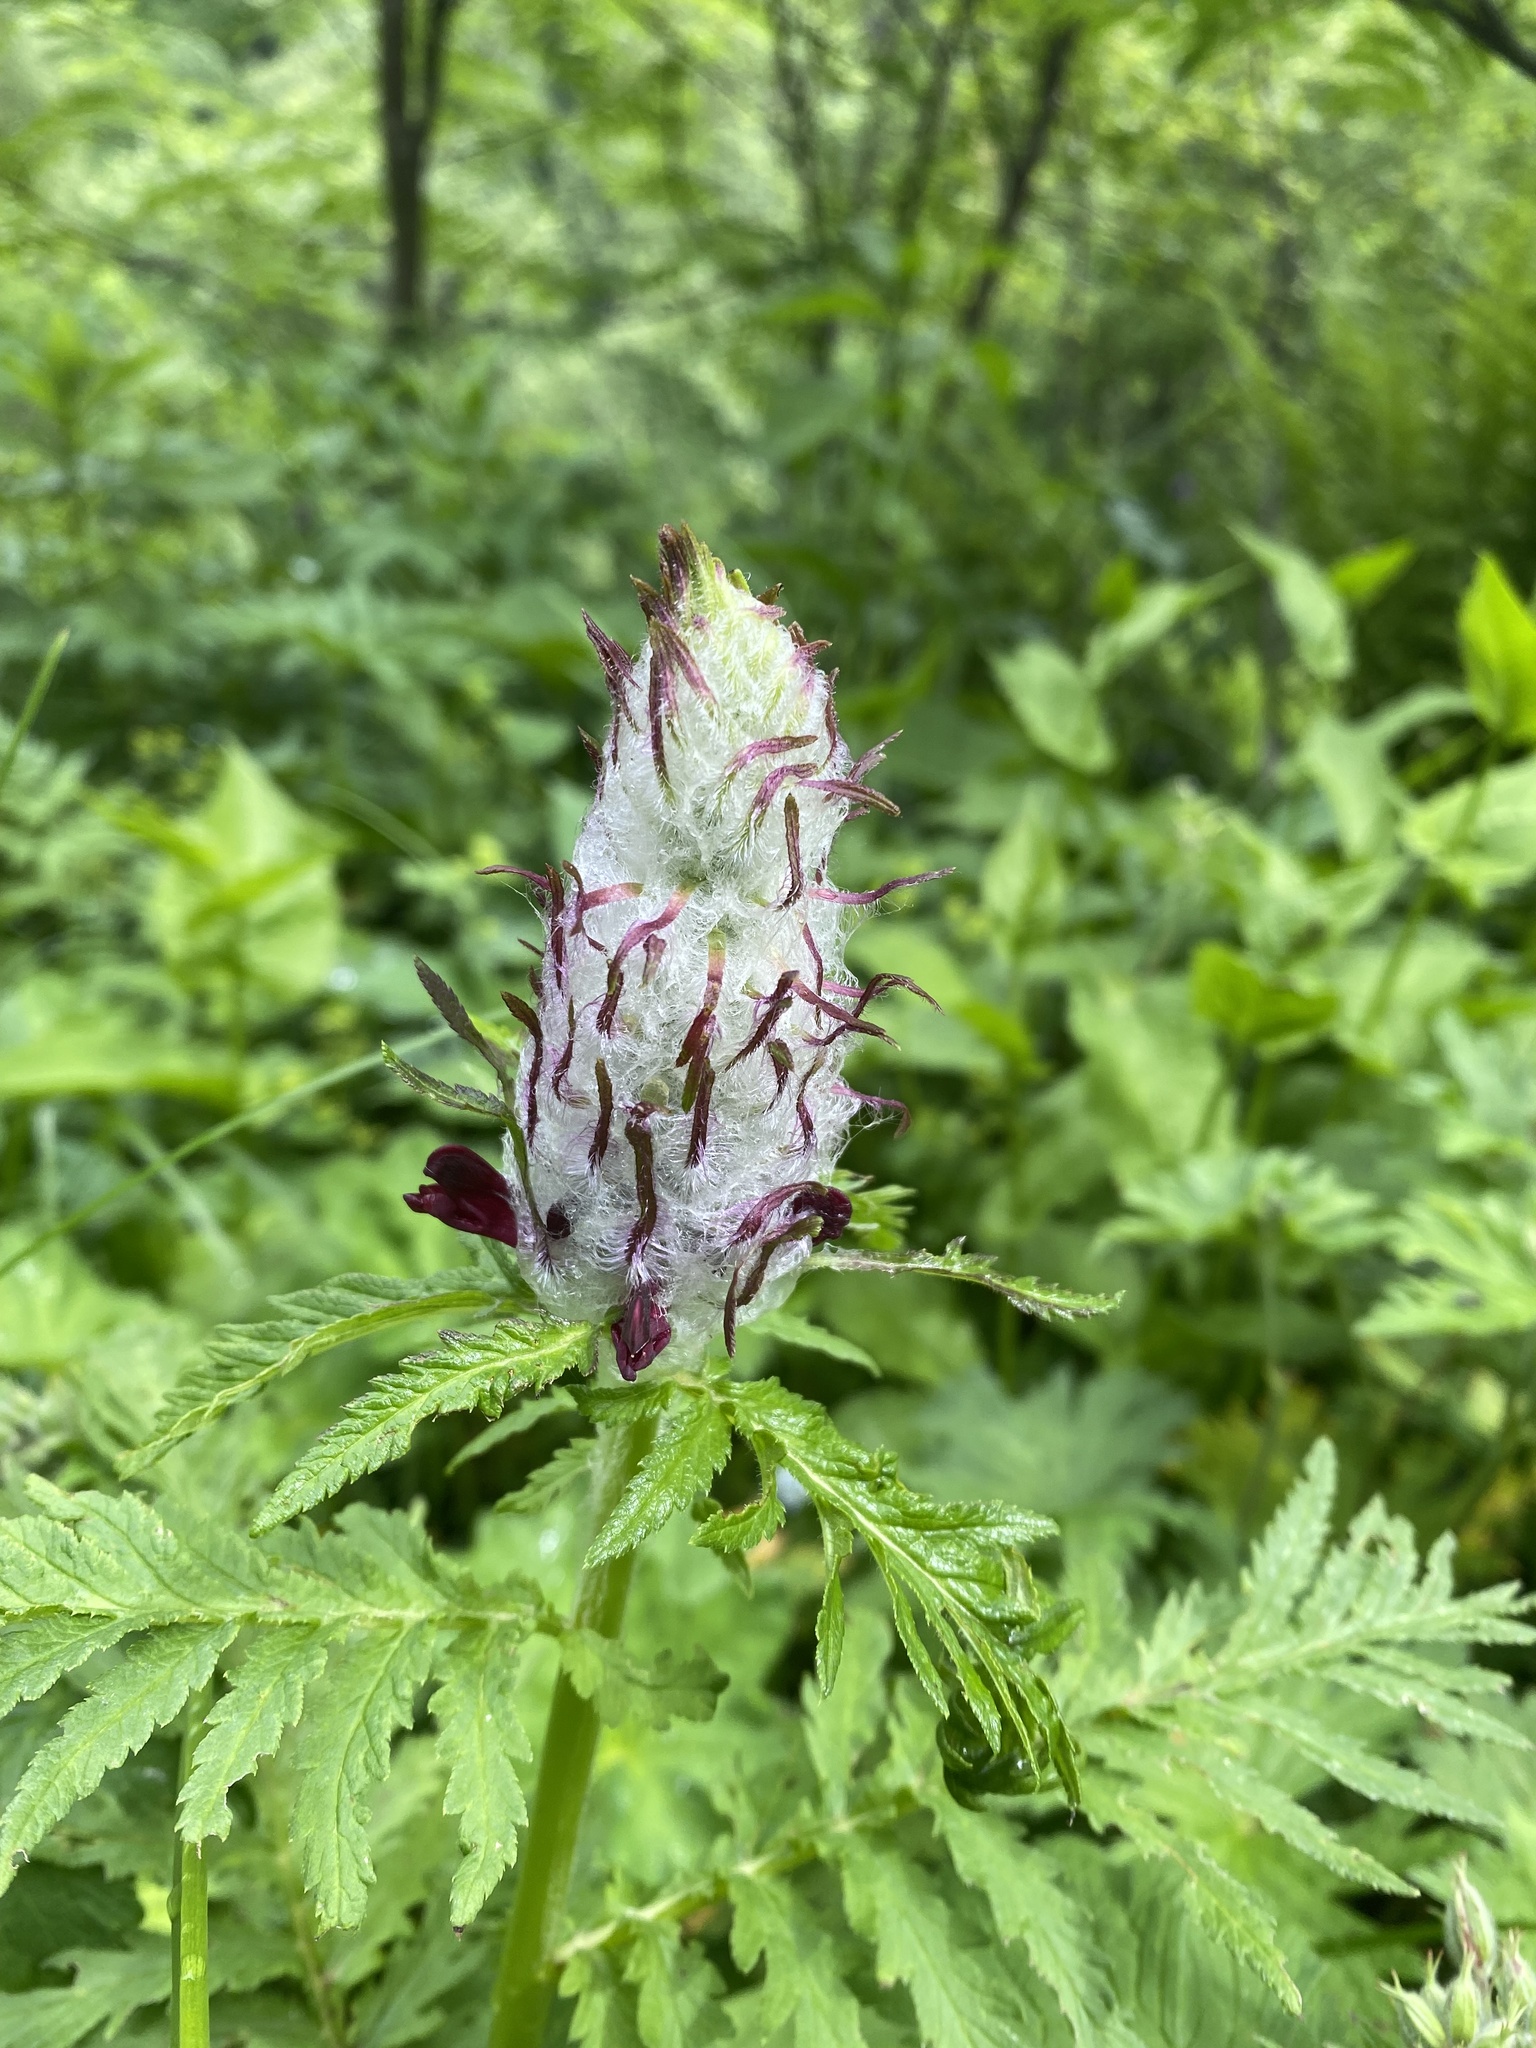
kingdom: Plantae
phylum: Tracheophyta
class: Magnoliopsida
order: Lamiales
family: Orobanchaceae
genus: Pedicularis
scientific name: Pedicularis atropurpurea
